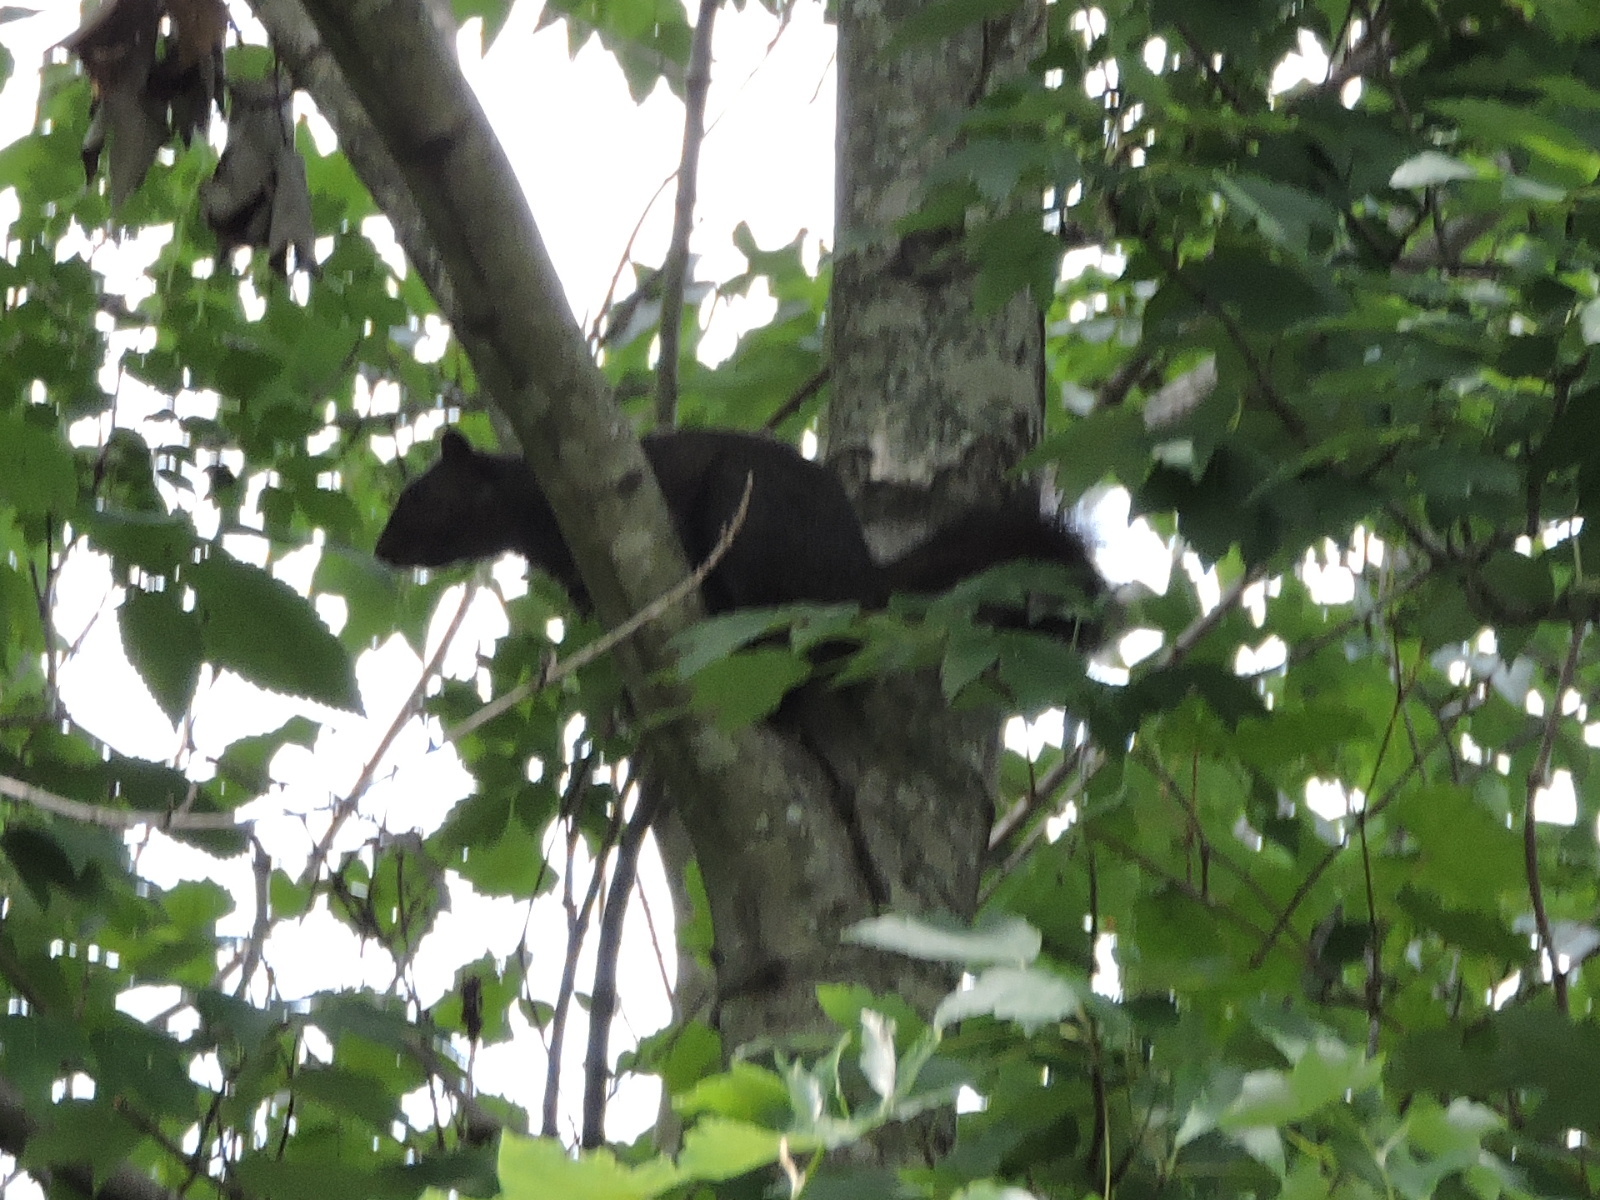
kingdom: Animalia
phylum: Chordata
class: Mammalia
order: Rodentia
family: Sciuridae
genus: Sciurus
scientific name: Sciurus carolinensis
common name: Eastern gray squirrel
